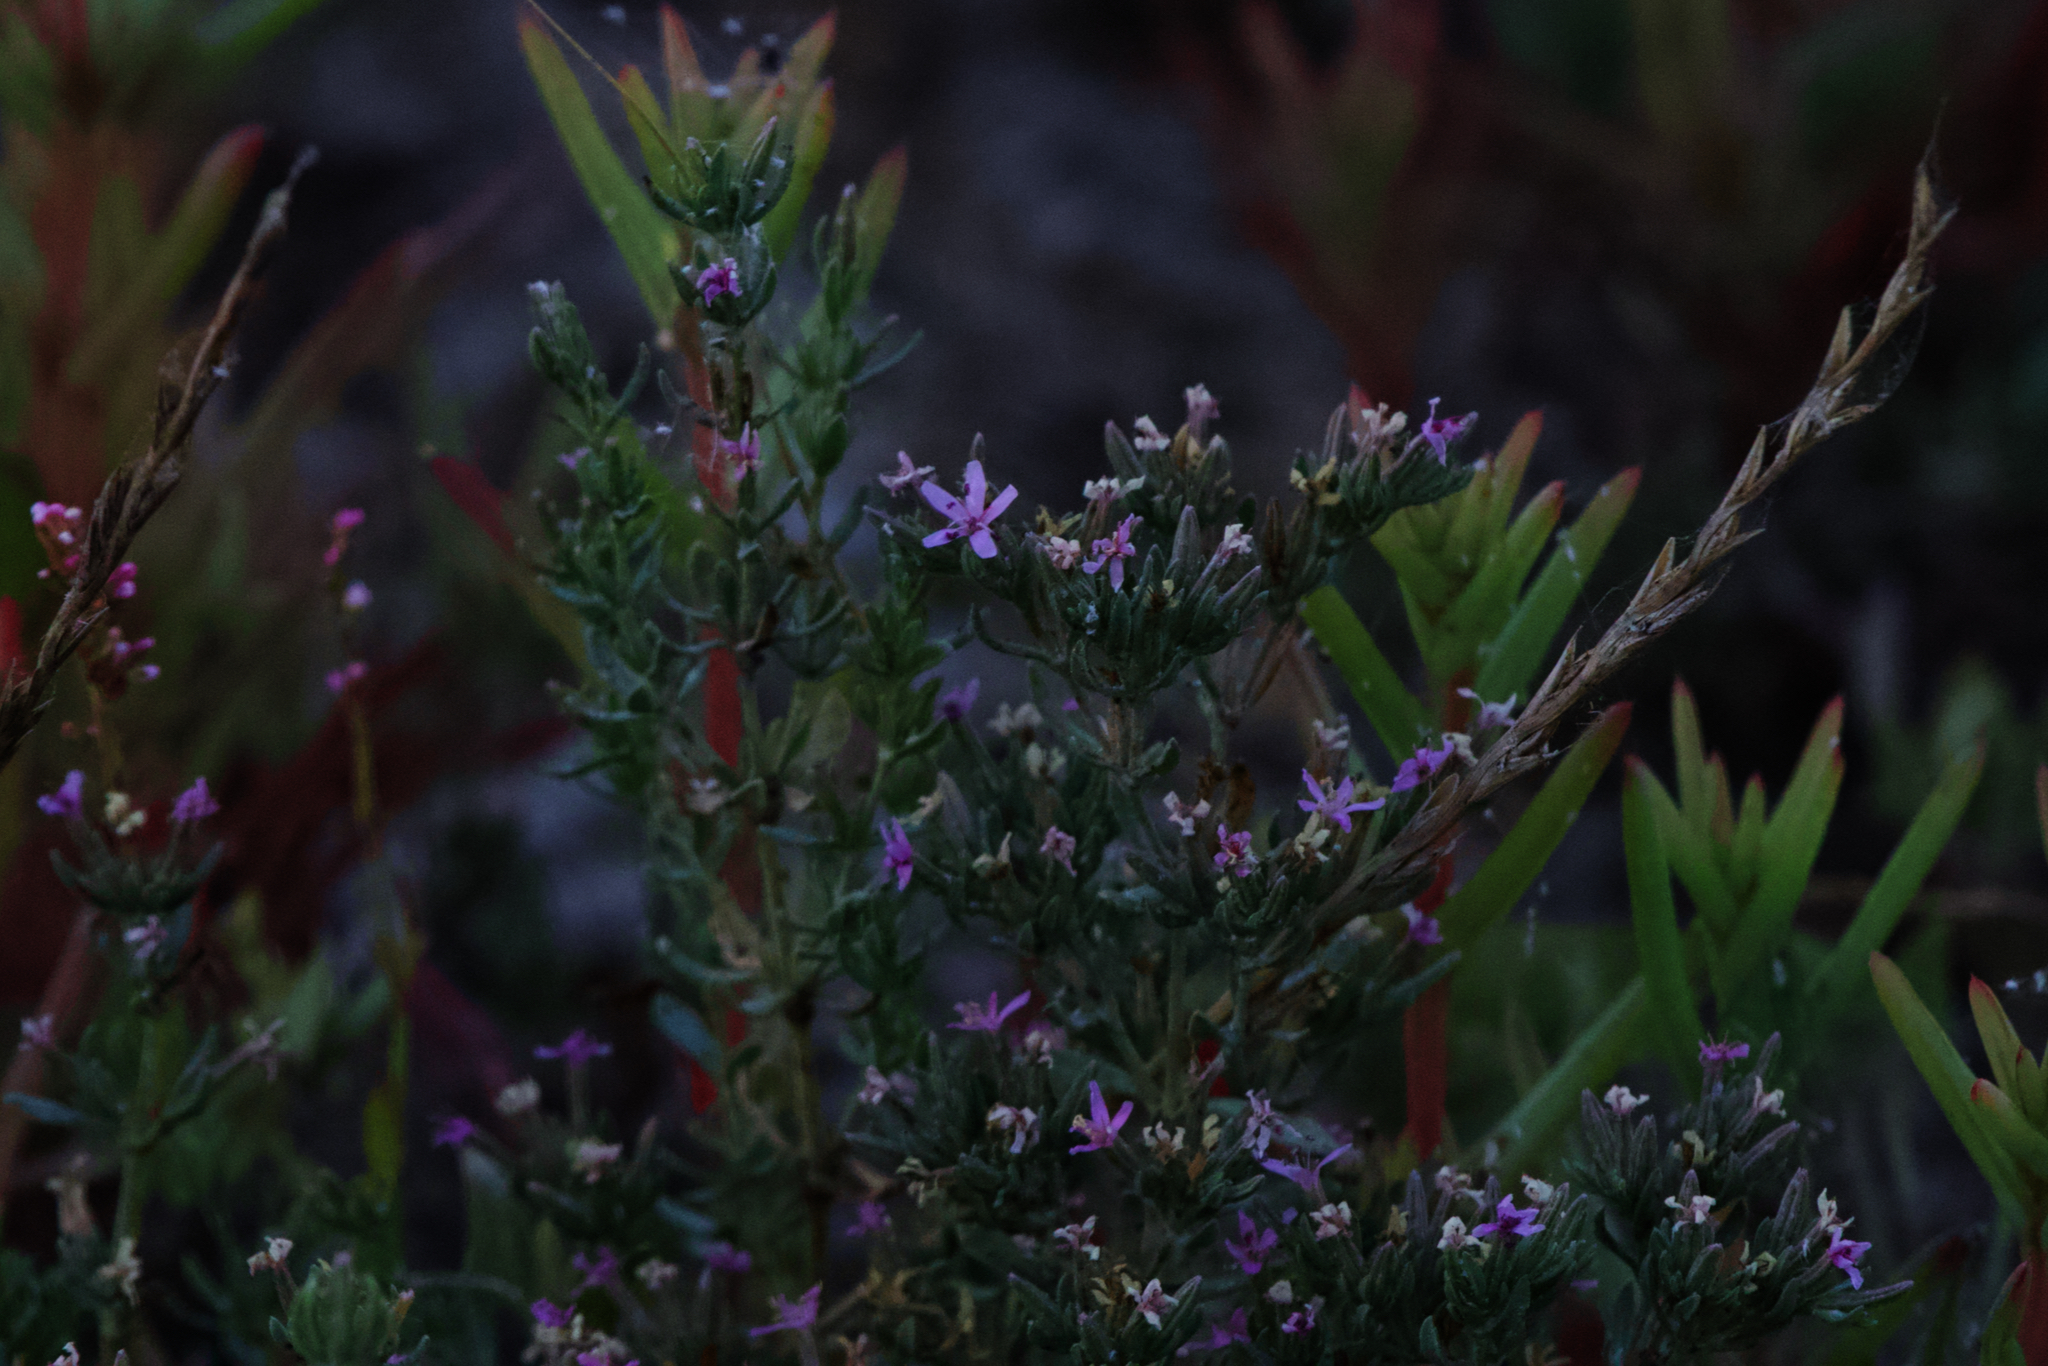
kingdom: Plantae
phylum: Tracheophyta
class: Magnoliopsida
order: Caryophyllales
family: Frankeniaceae
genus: Frankenia
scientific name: Frankenia salina
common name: Alkali seaheath
